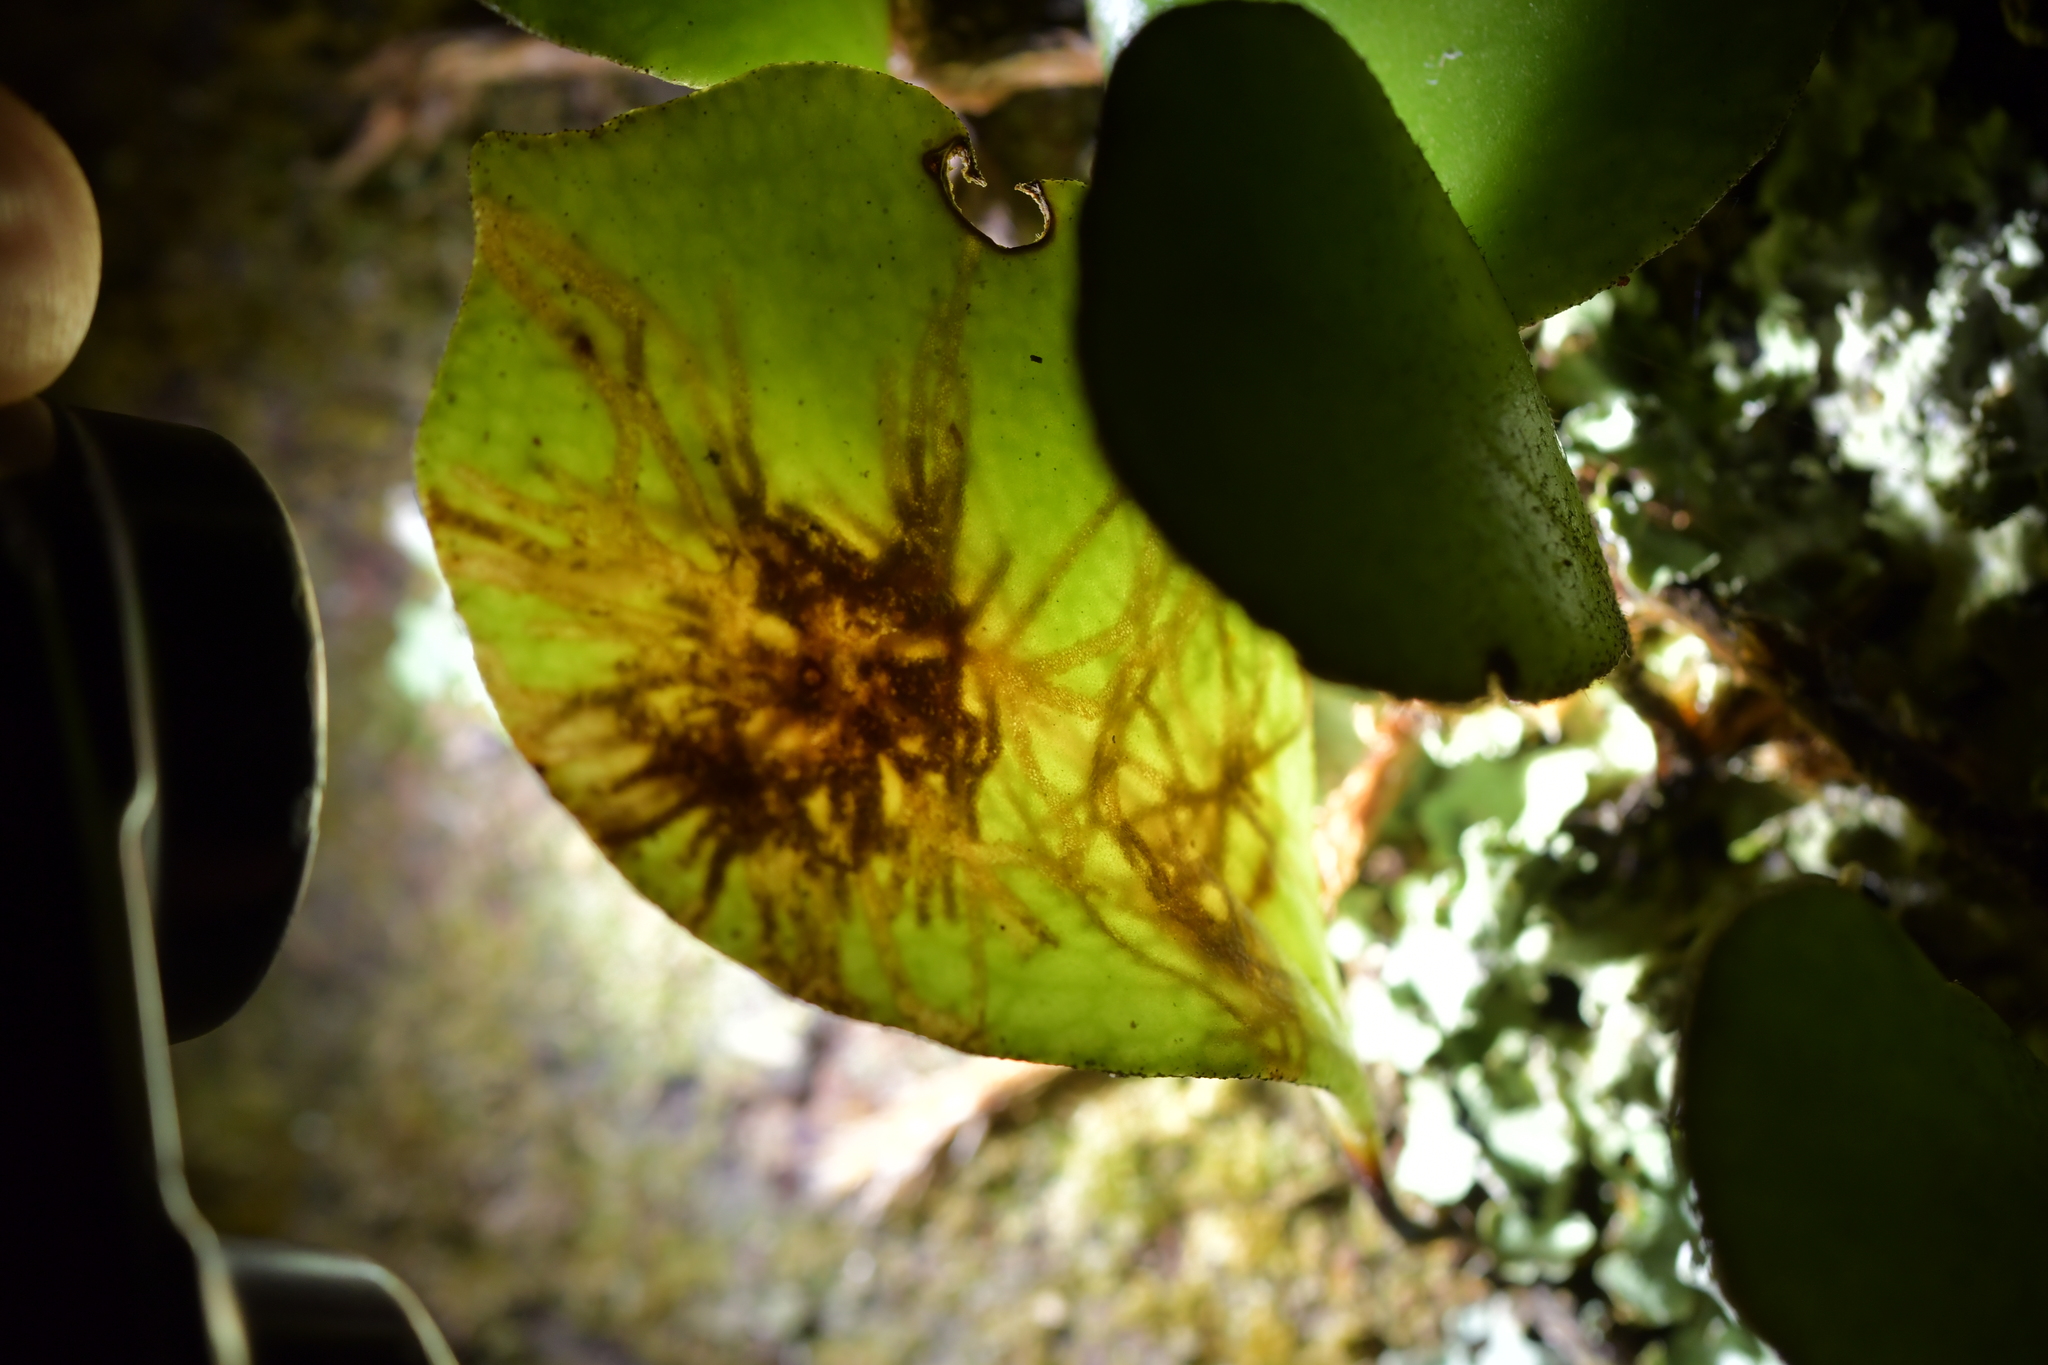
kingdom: Animalia
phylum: Arthropoda
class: Insecta
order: Lepidoptera
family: Tortricidae
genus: Philocryptica
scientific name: Philocryptica polypodii
